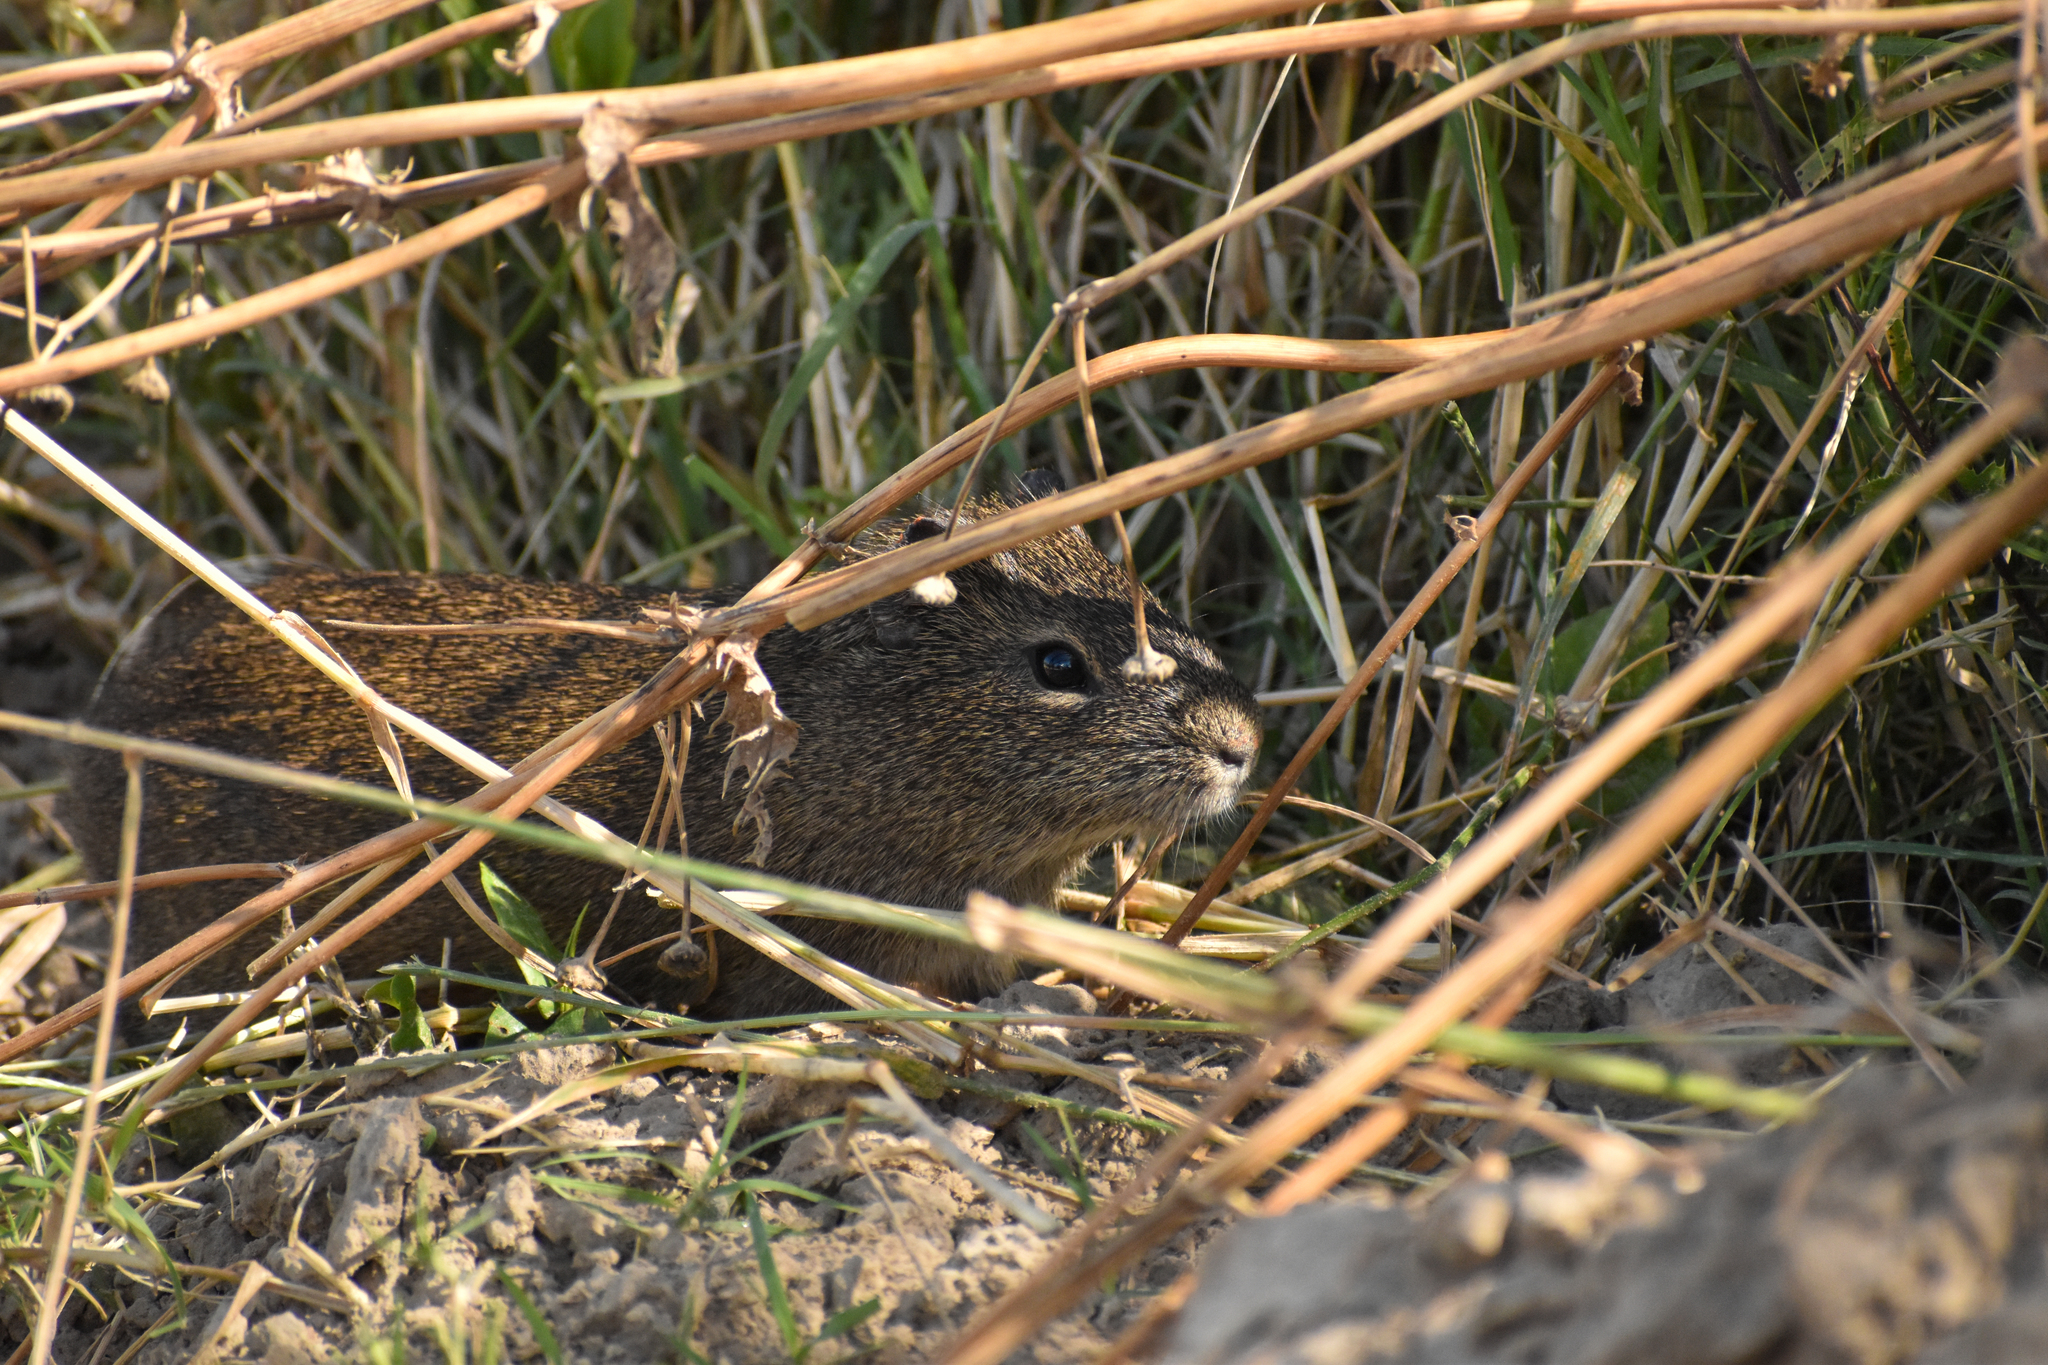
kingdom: Animalia
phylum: Chordata
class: Mammalia
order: Rodentia
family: Caviidae
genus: Cavia
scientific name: Cavia aperea
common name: Brazilian guinea pig
